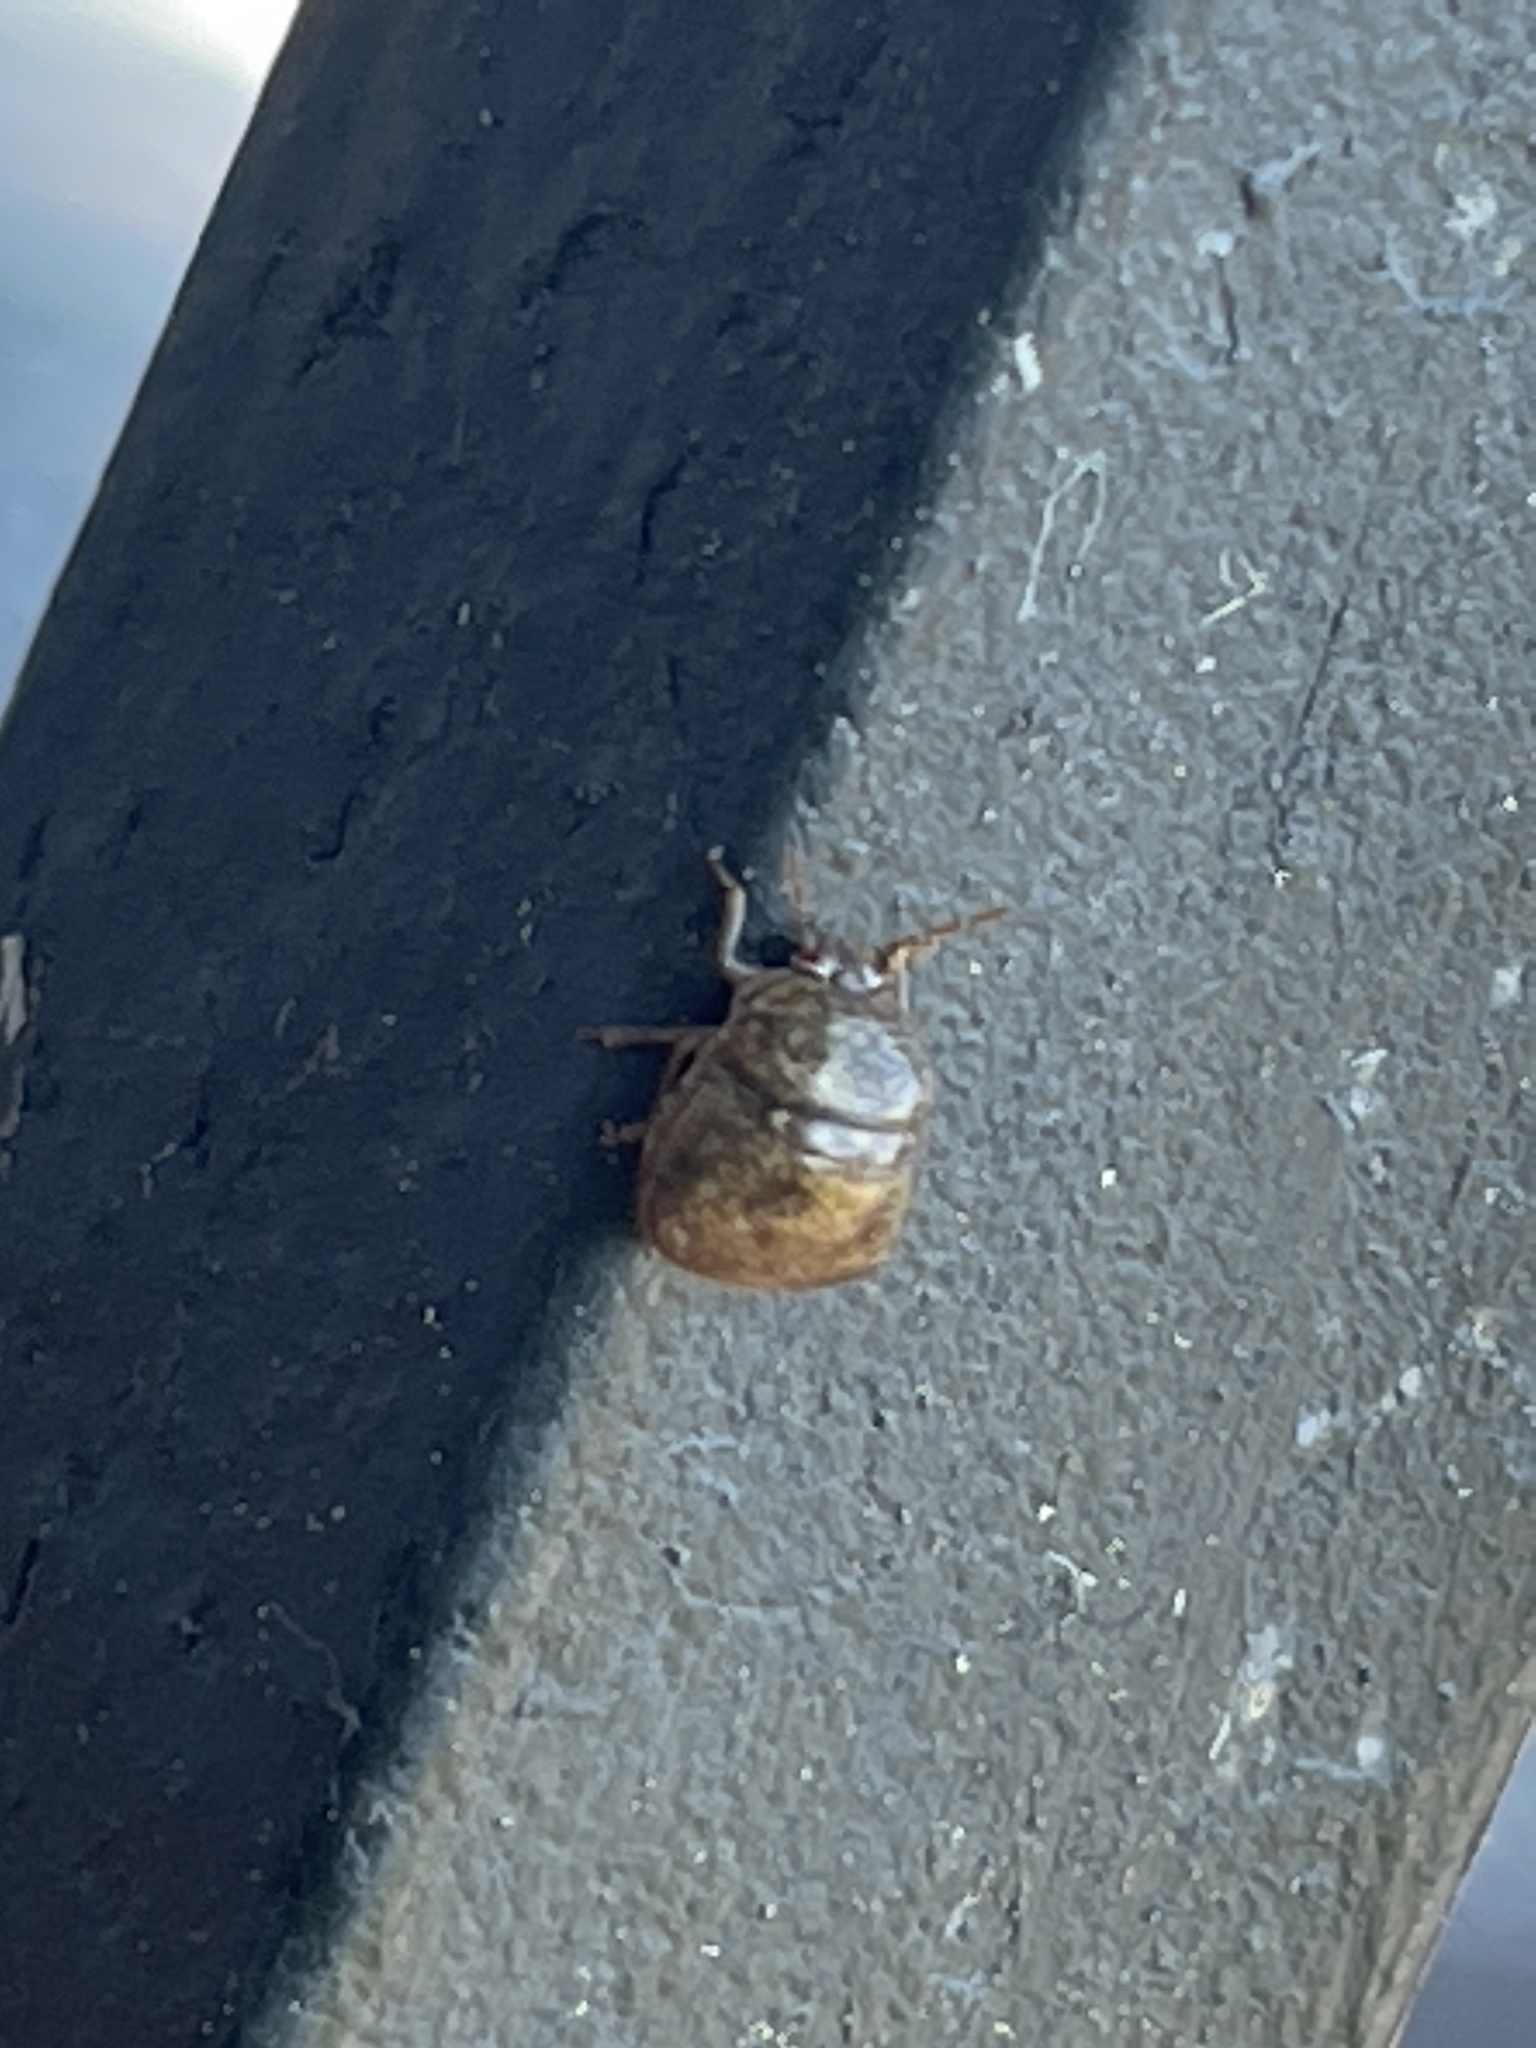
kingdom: Animalia
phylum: Arthropoda
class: Insecta
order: Hemiptera
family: Plataspidae
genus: Megacopta
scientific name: Megacopta cribraria
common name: Bean plataspid
